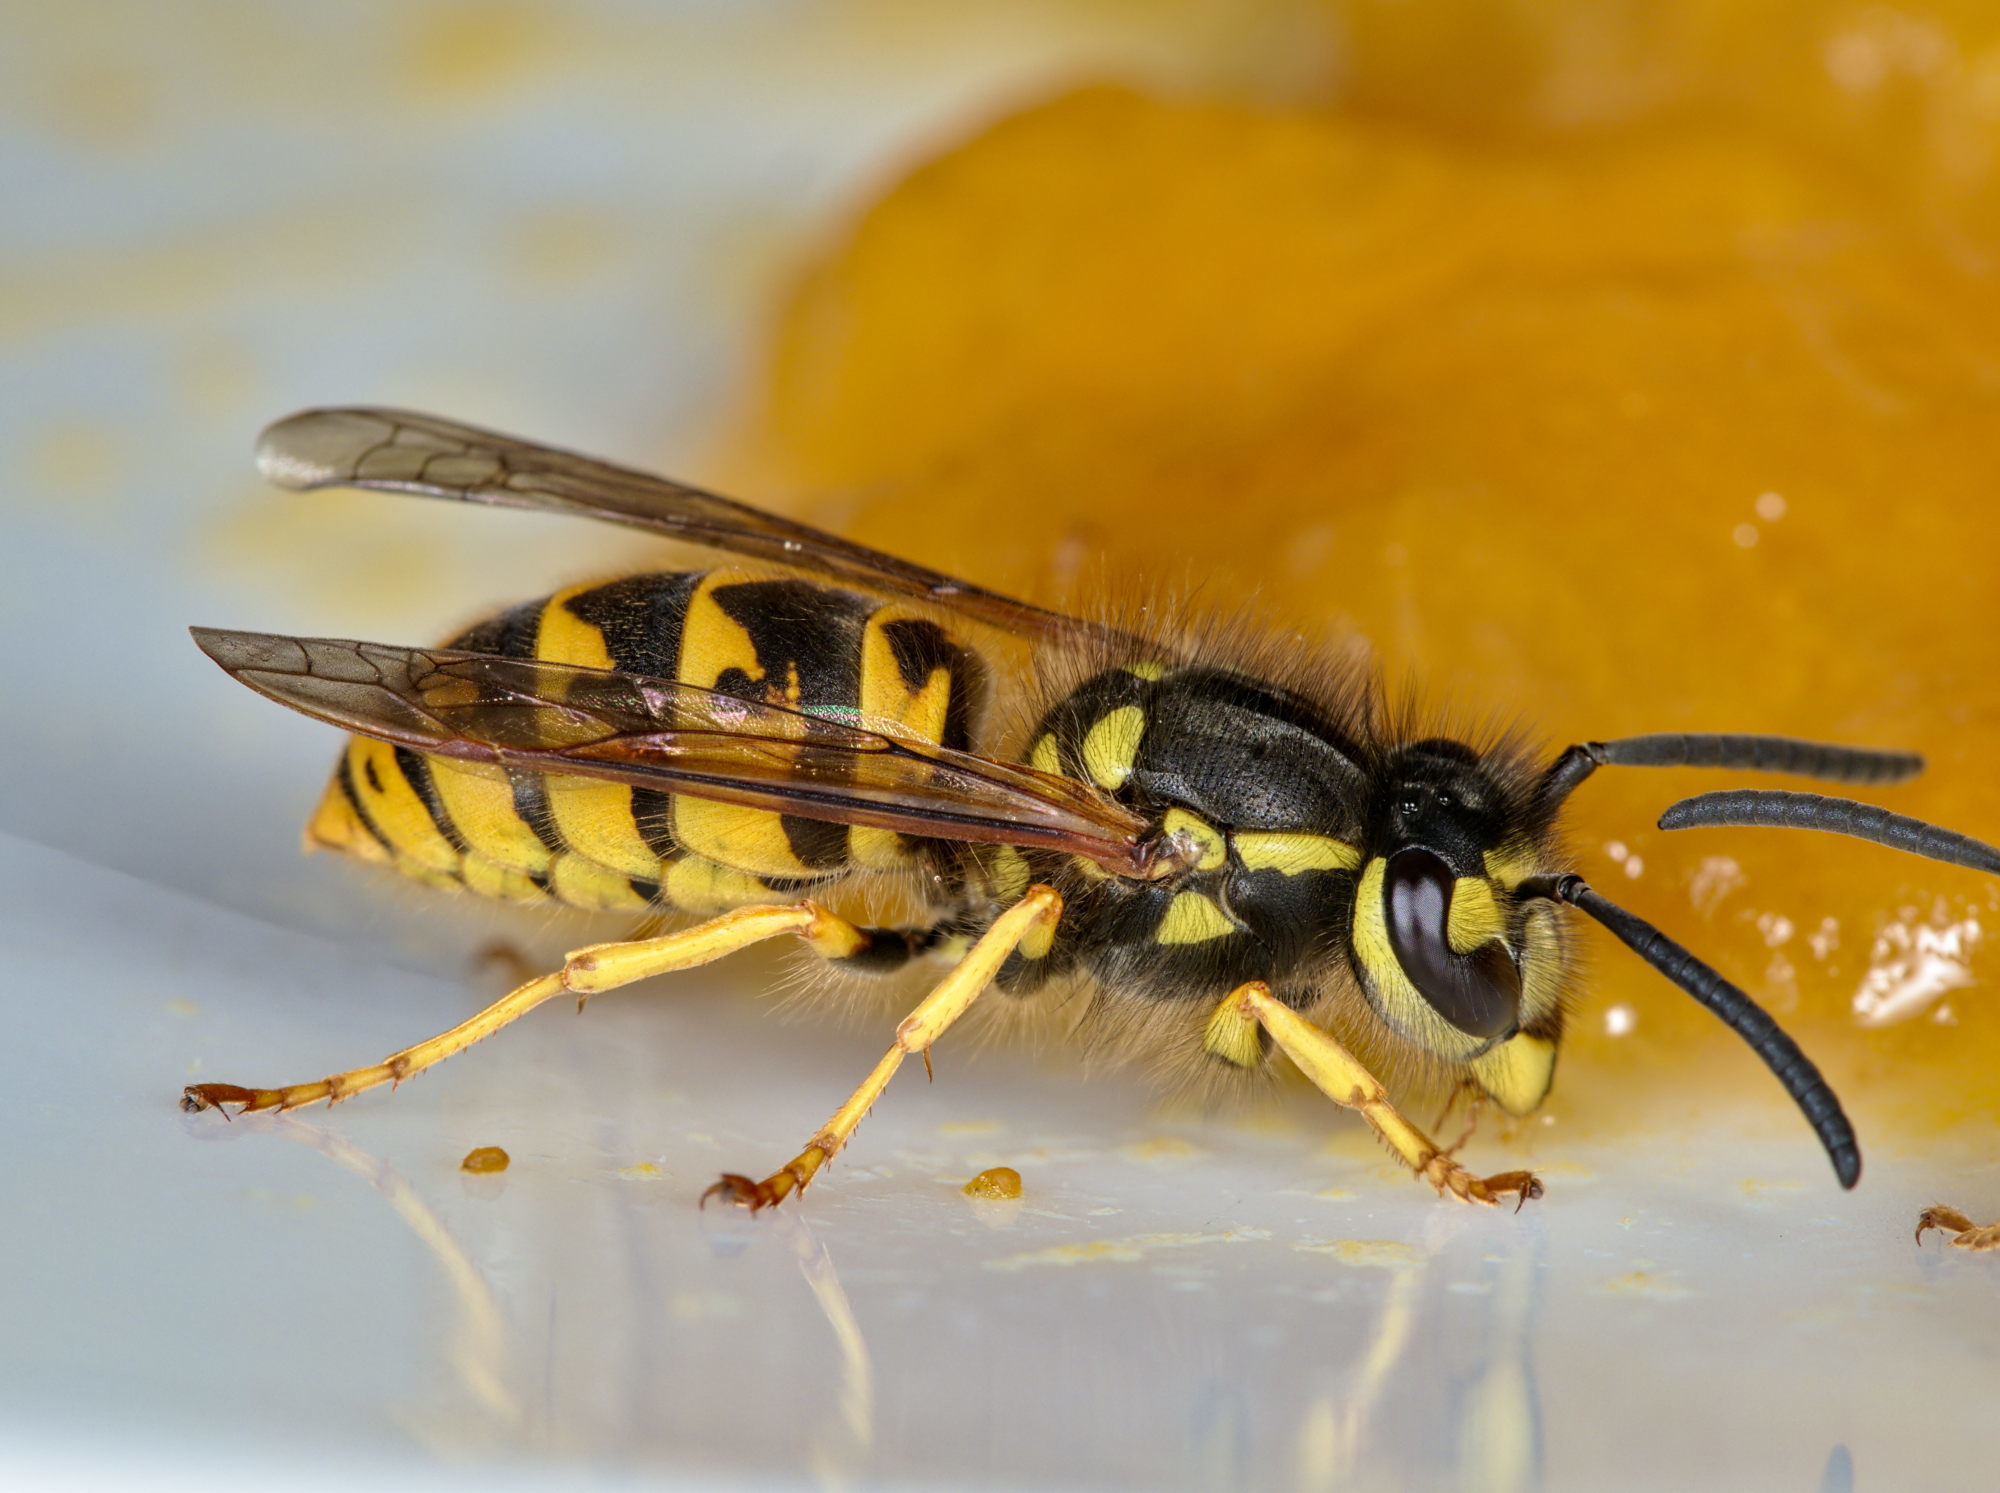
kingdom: Animalia
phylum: Arthropoda
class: Insecta
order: Hymenoptera
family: Vespidae
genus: Vespula
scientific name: Vespula germanica
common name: German wasp
